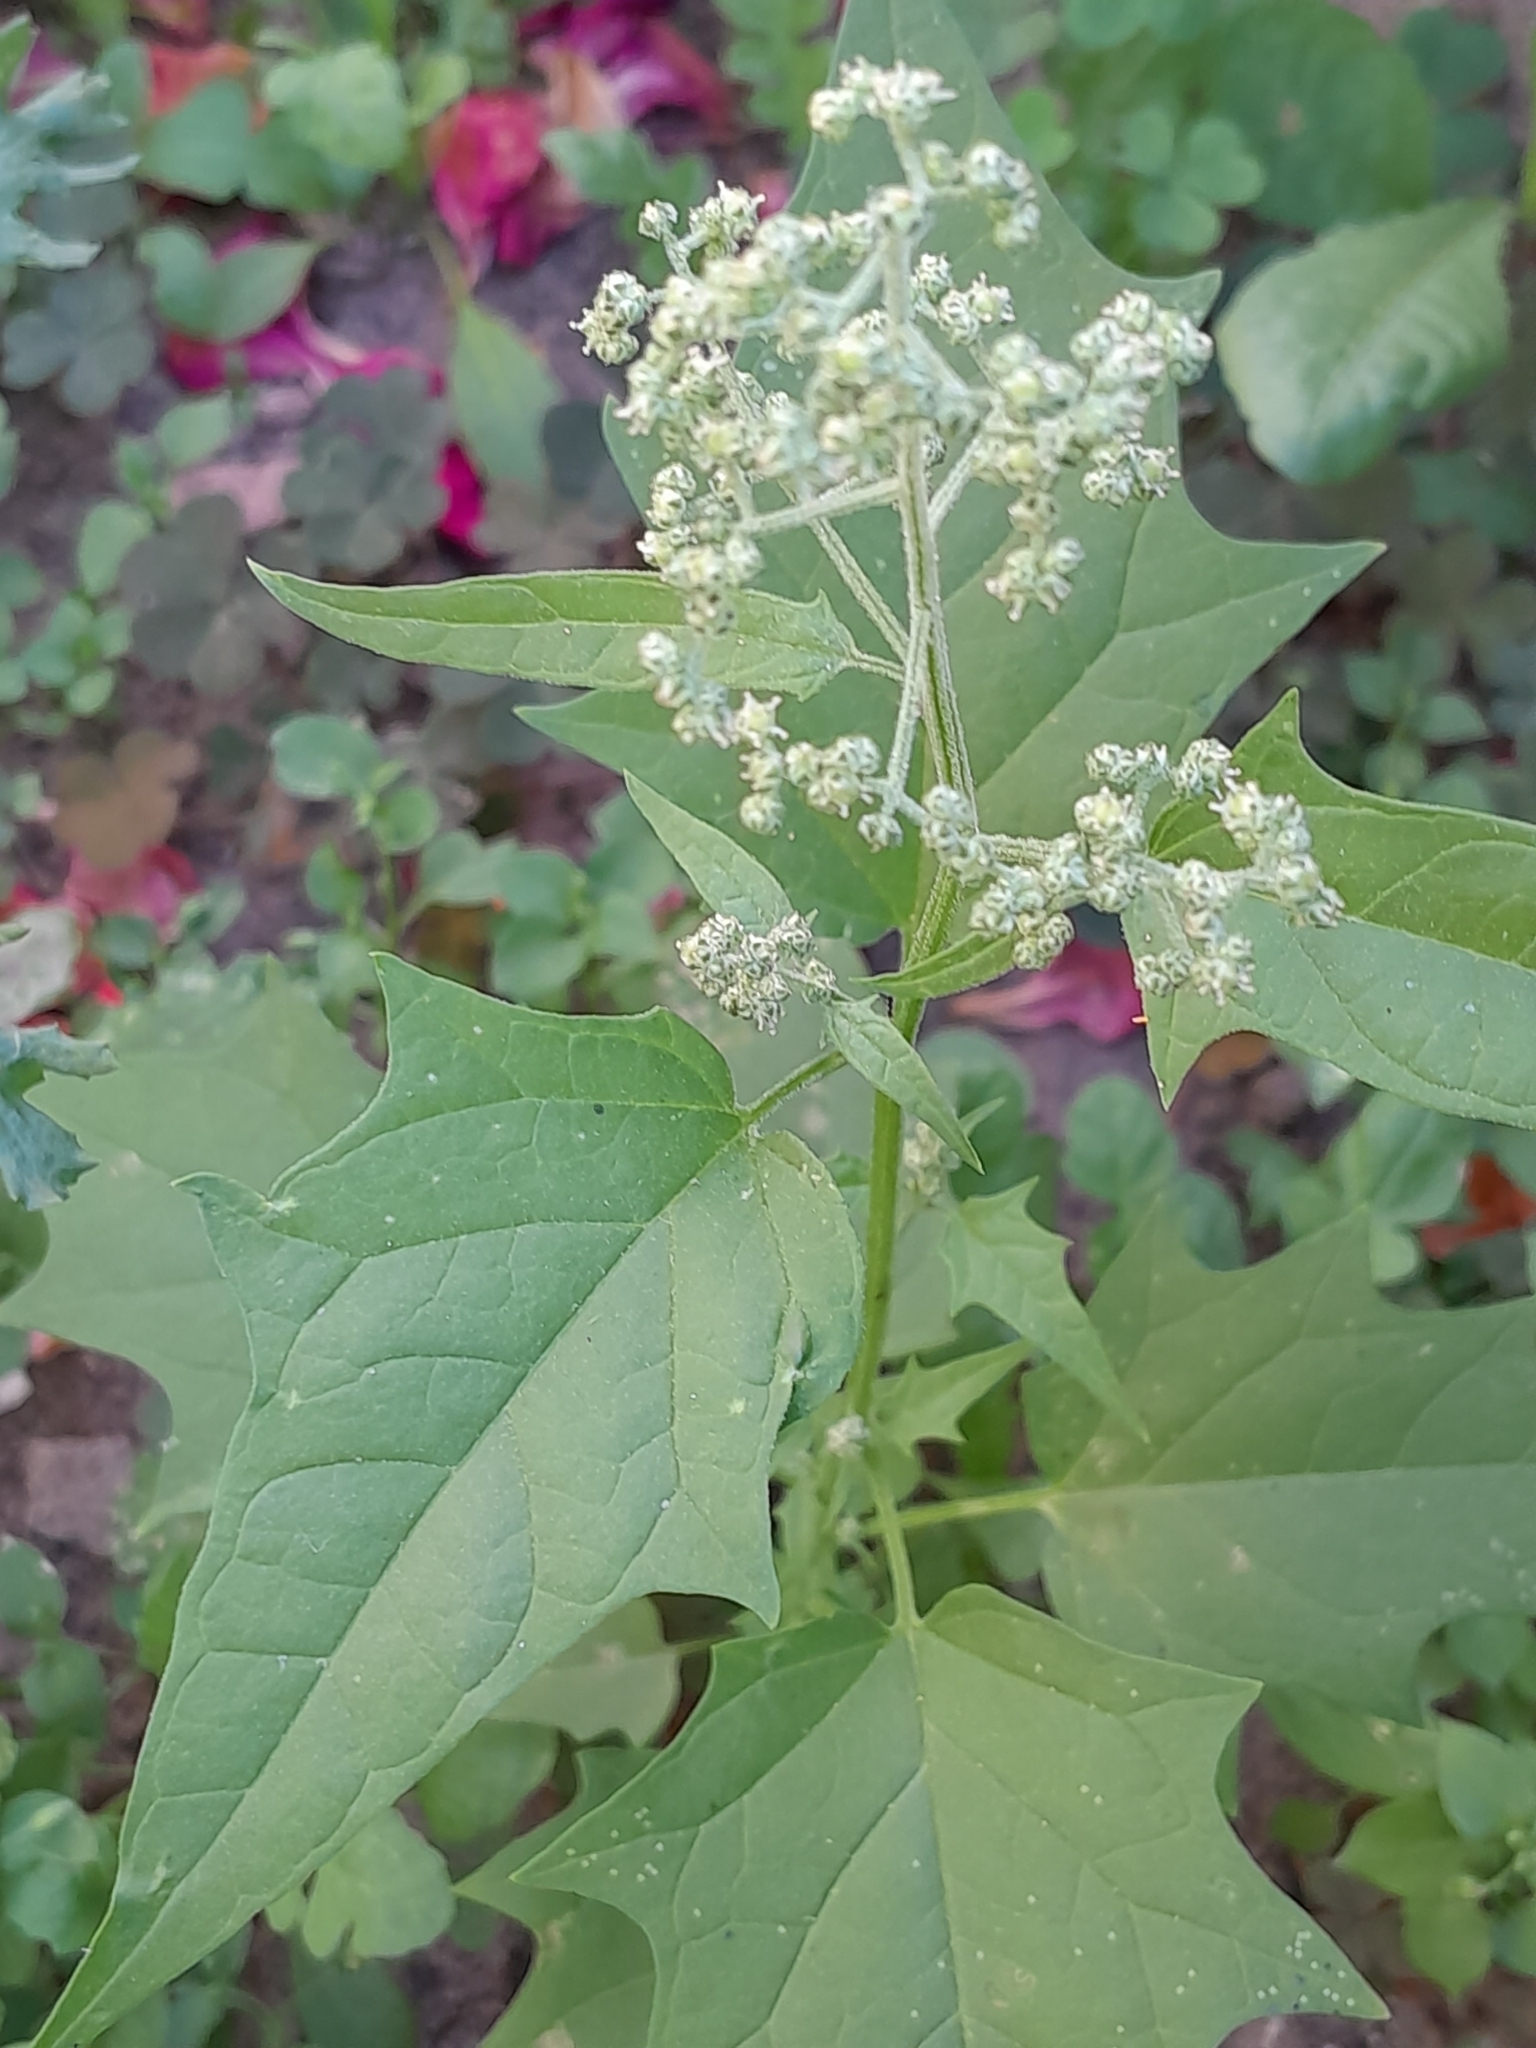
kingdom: Plantae
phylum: Tracheophyta
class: Magnoliopsida
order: Caryophyllales
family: Amaranthaceae
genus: Chenopodiastrum
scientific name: Chenopodiastrum hybridum
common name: Mapleleaf goosefoot
